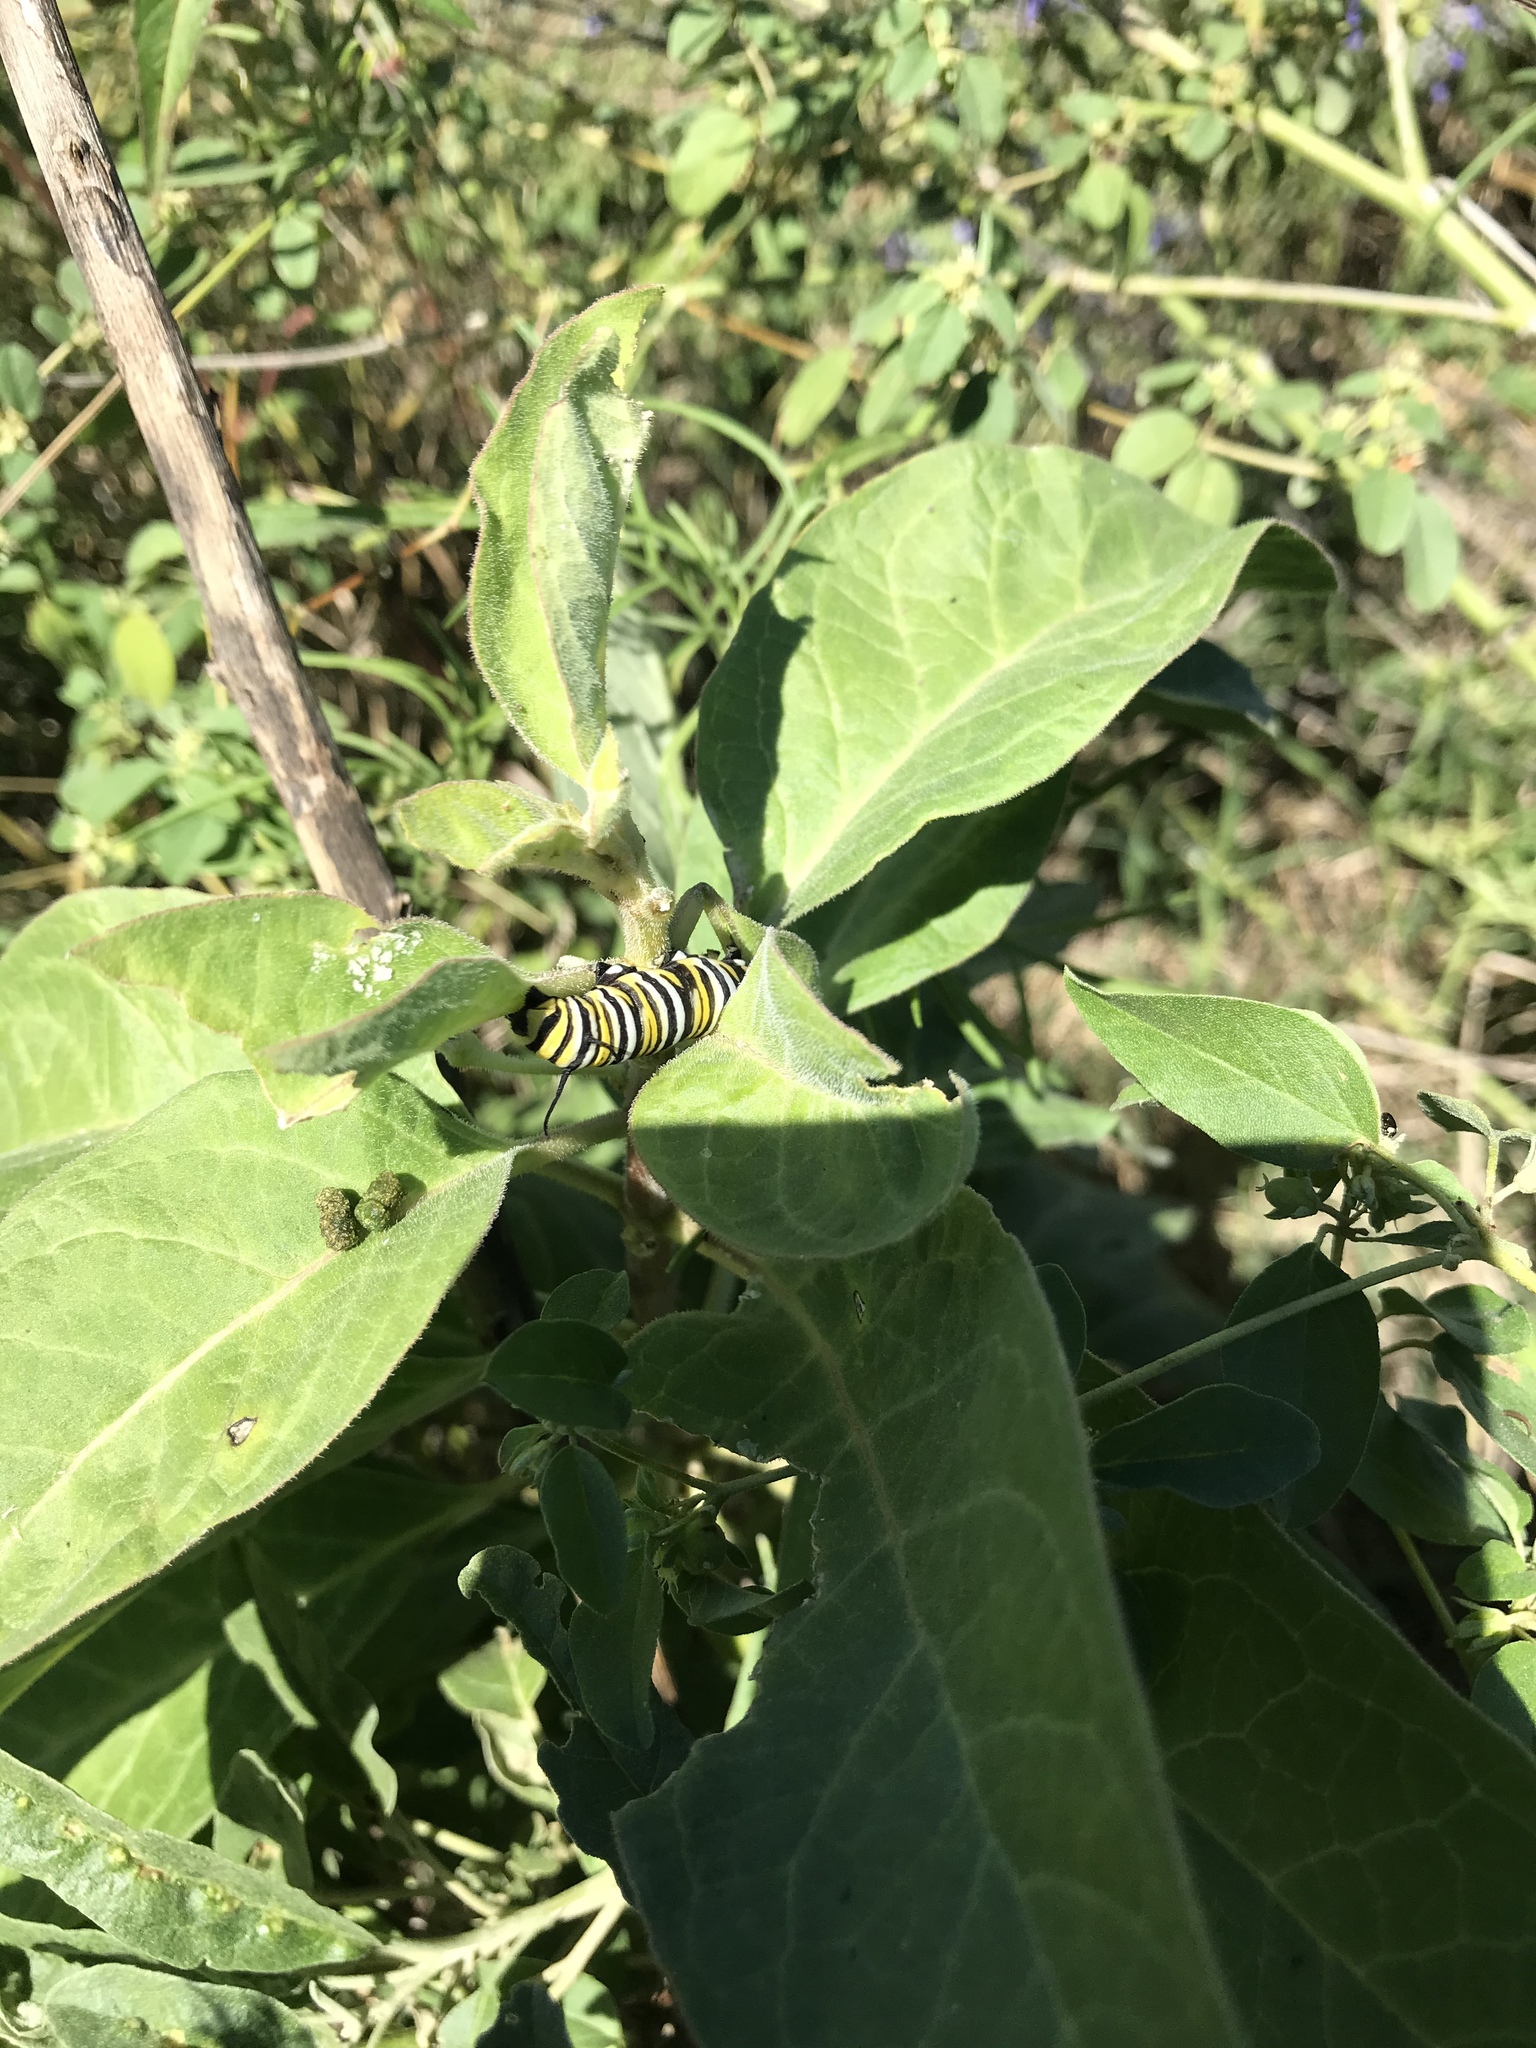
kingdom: Animalia
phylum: Arthropoda
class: Insecta
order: Lepidoptera
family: Nymphalidae
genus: Danaus
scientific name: Danaus plexippus
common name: Monarch
